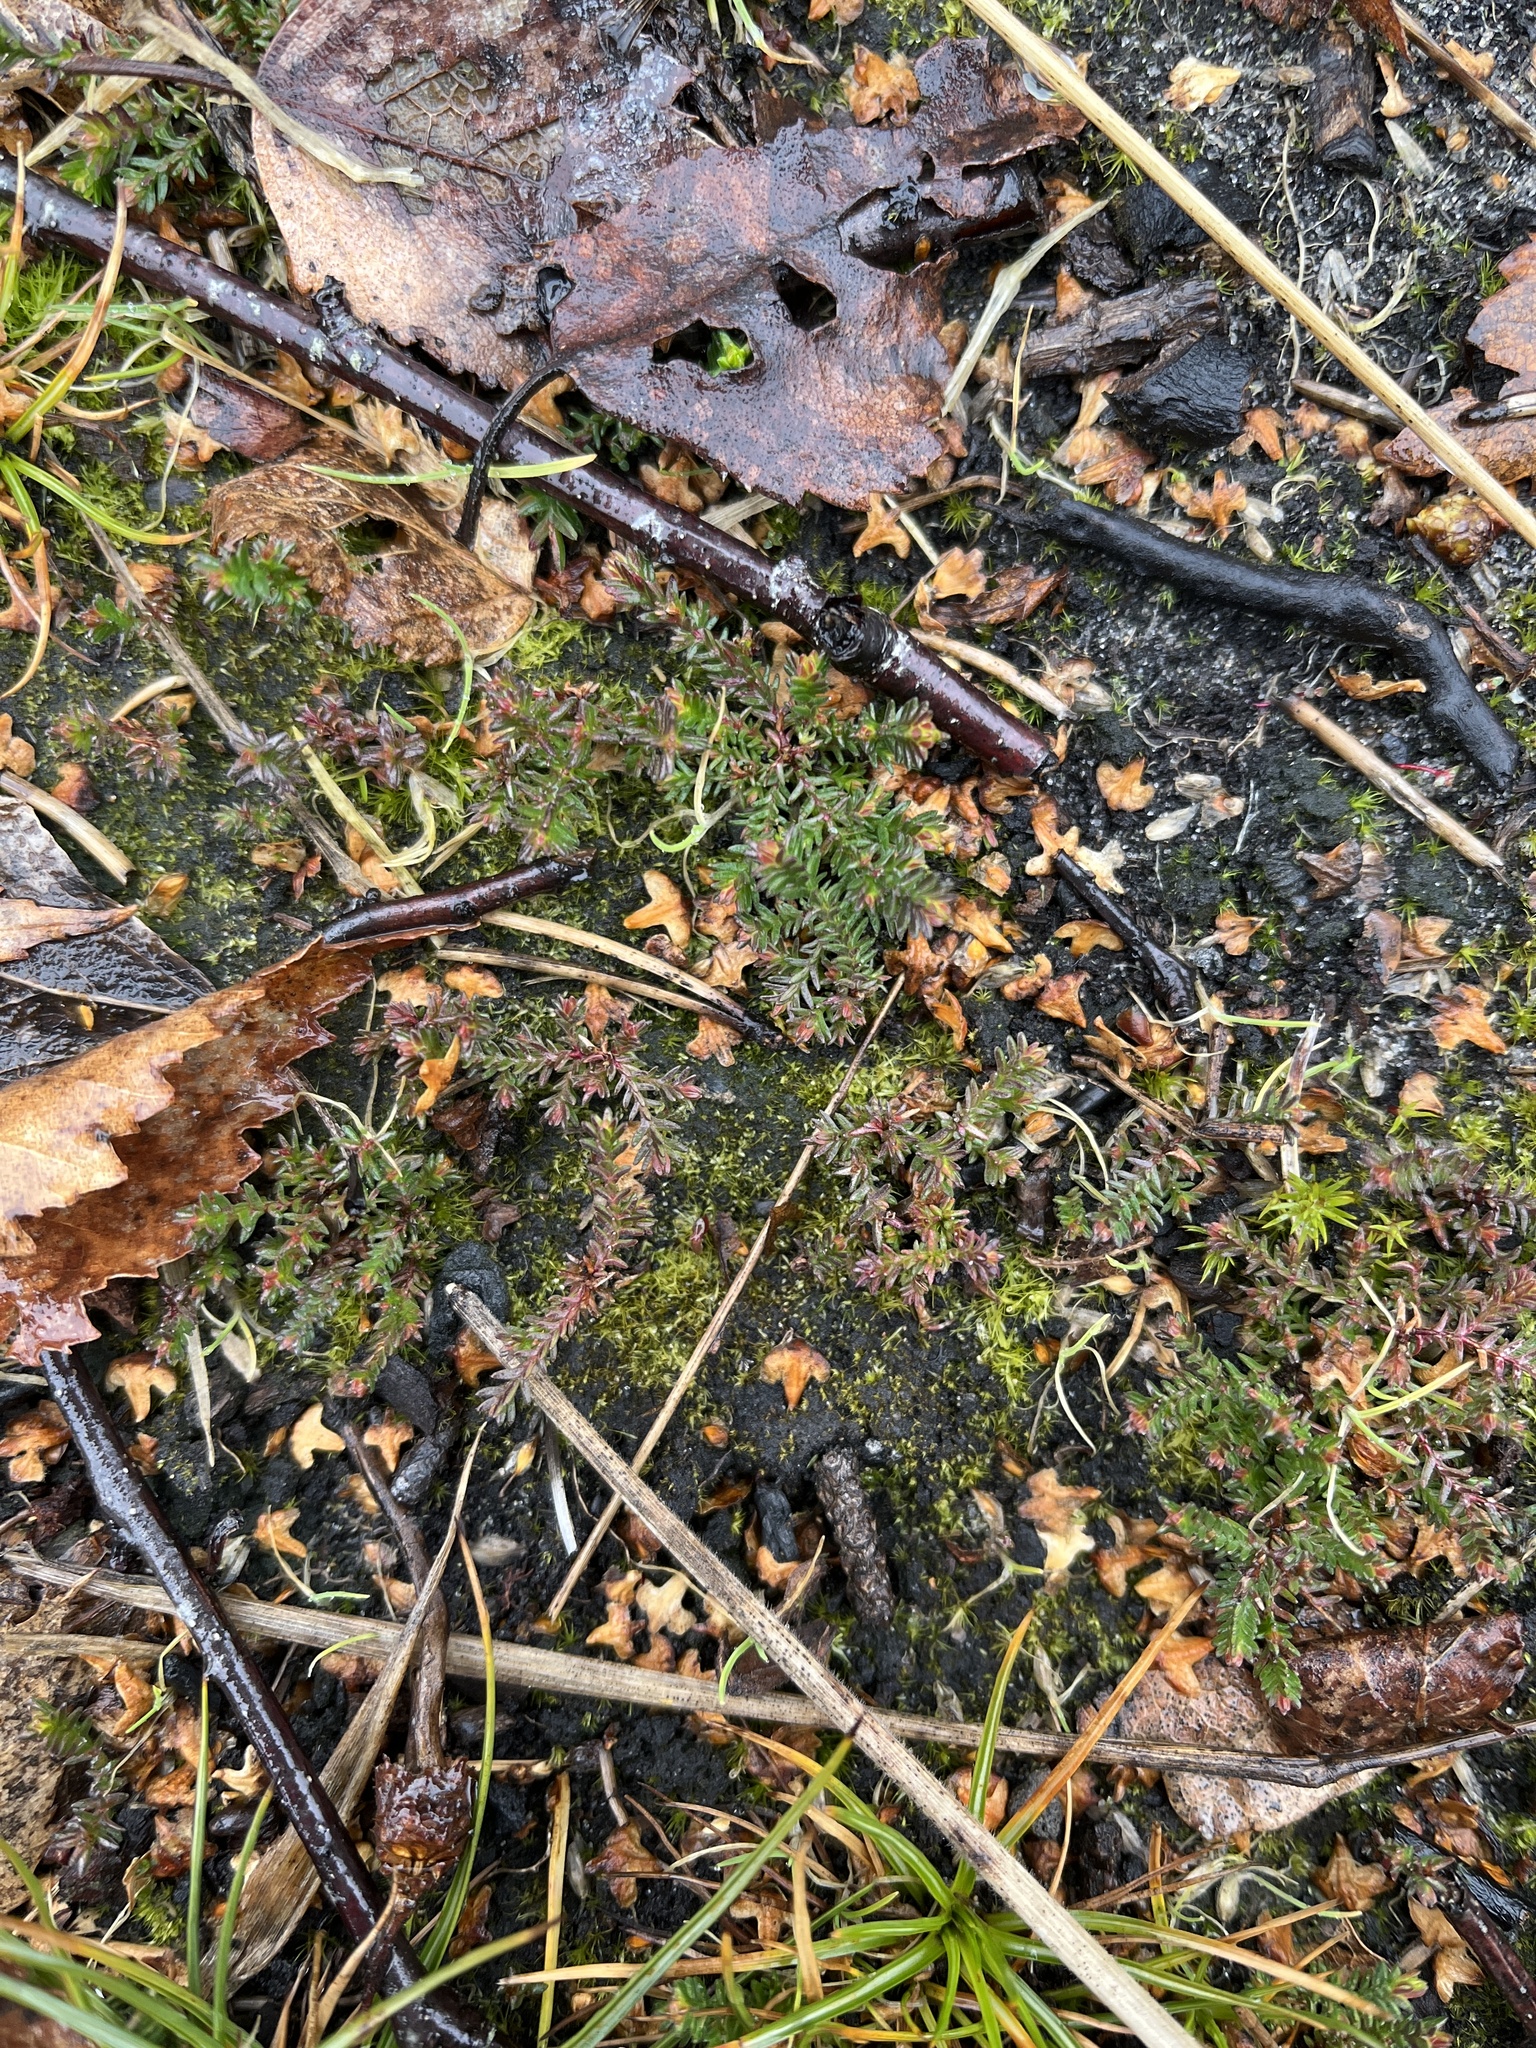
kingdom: Plantae
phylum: Tracheophyta
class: Magnoliopsida
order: Ericales
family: Ericaceae
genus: Calluna
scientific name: Calluna vulgaris
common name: Heather
